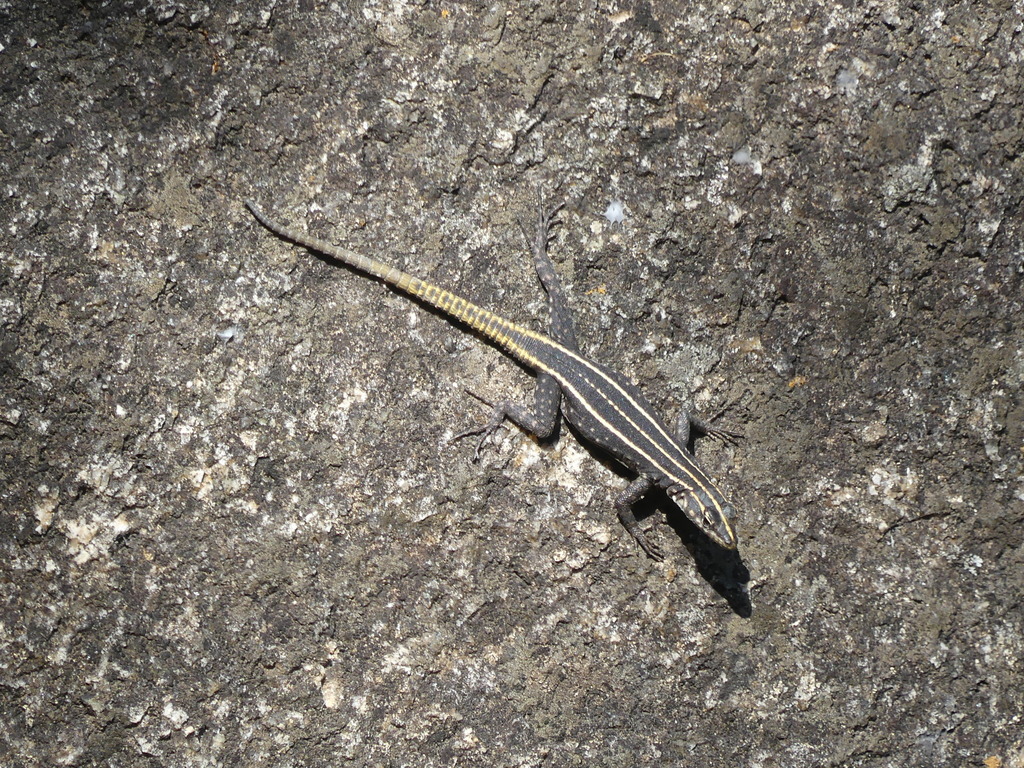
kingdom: Animalia
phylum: Chordata
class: Squamata
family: Cordylidae
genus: Platysaurus
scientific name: Platysaurus intermedius
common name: Common flat lizard
